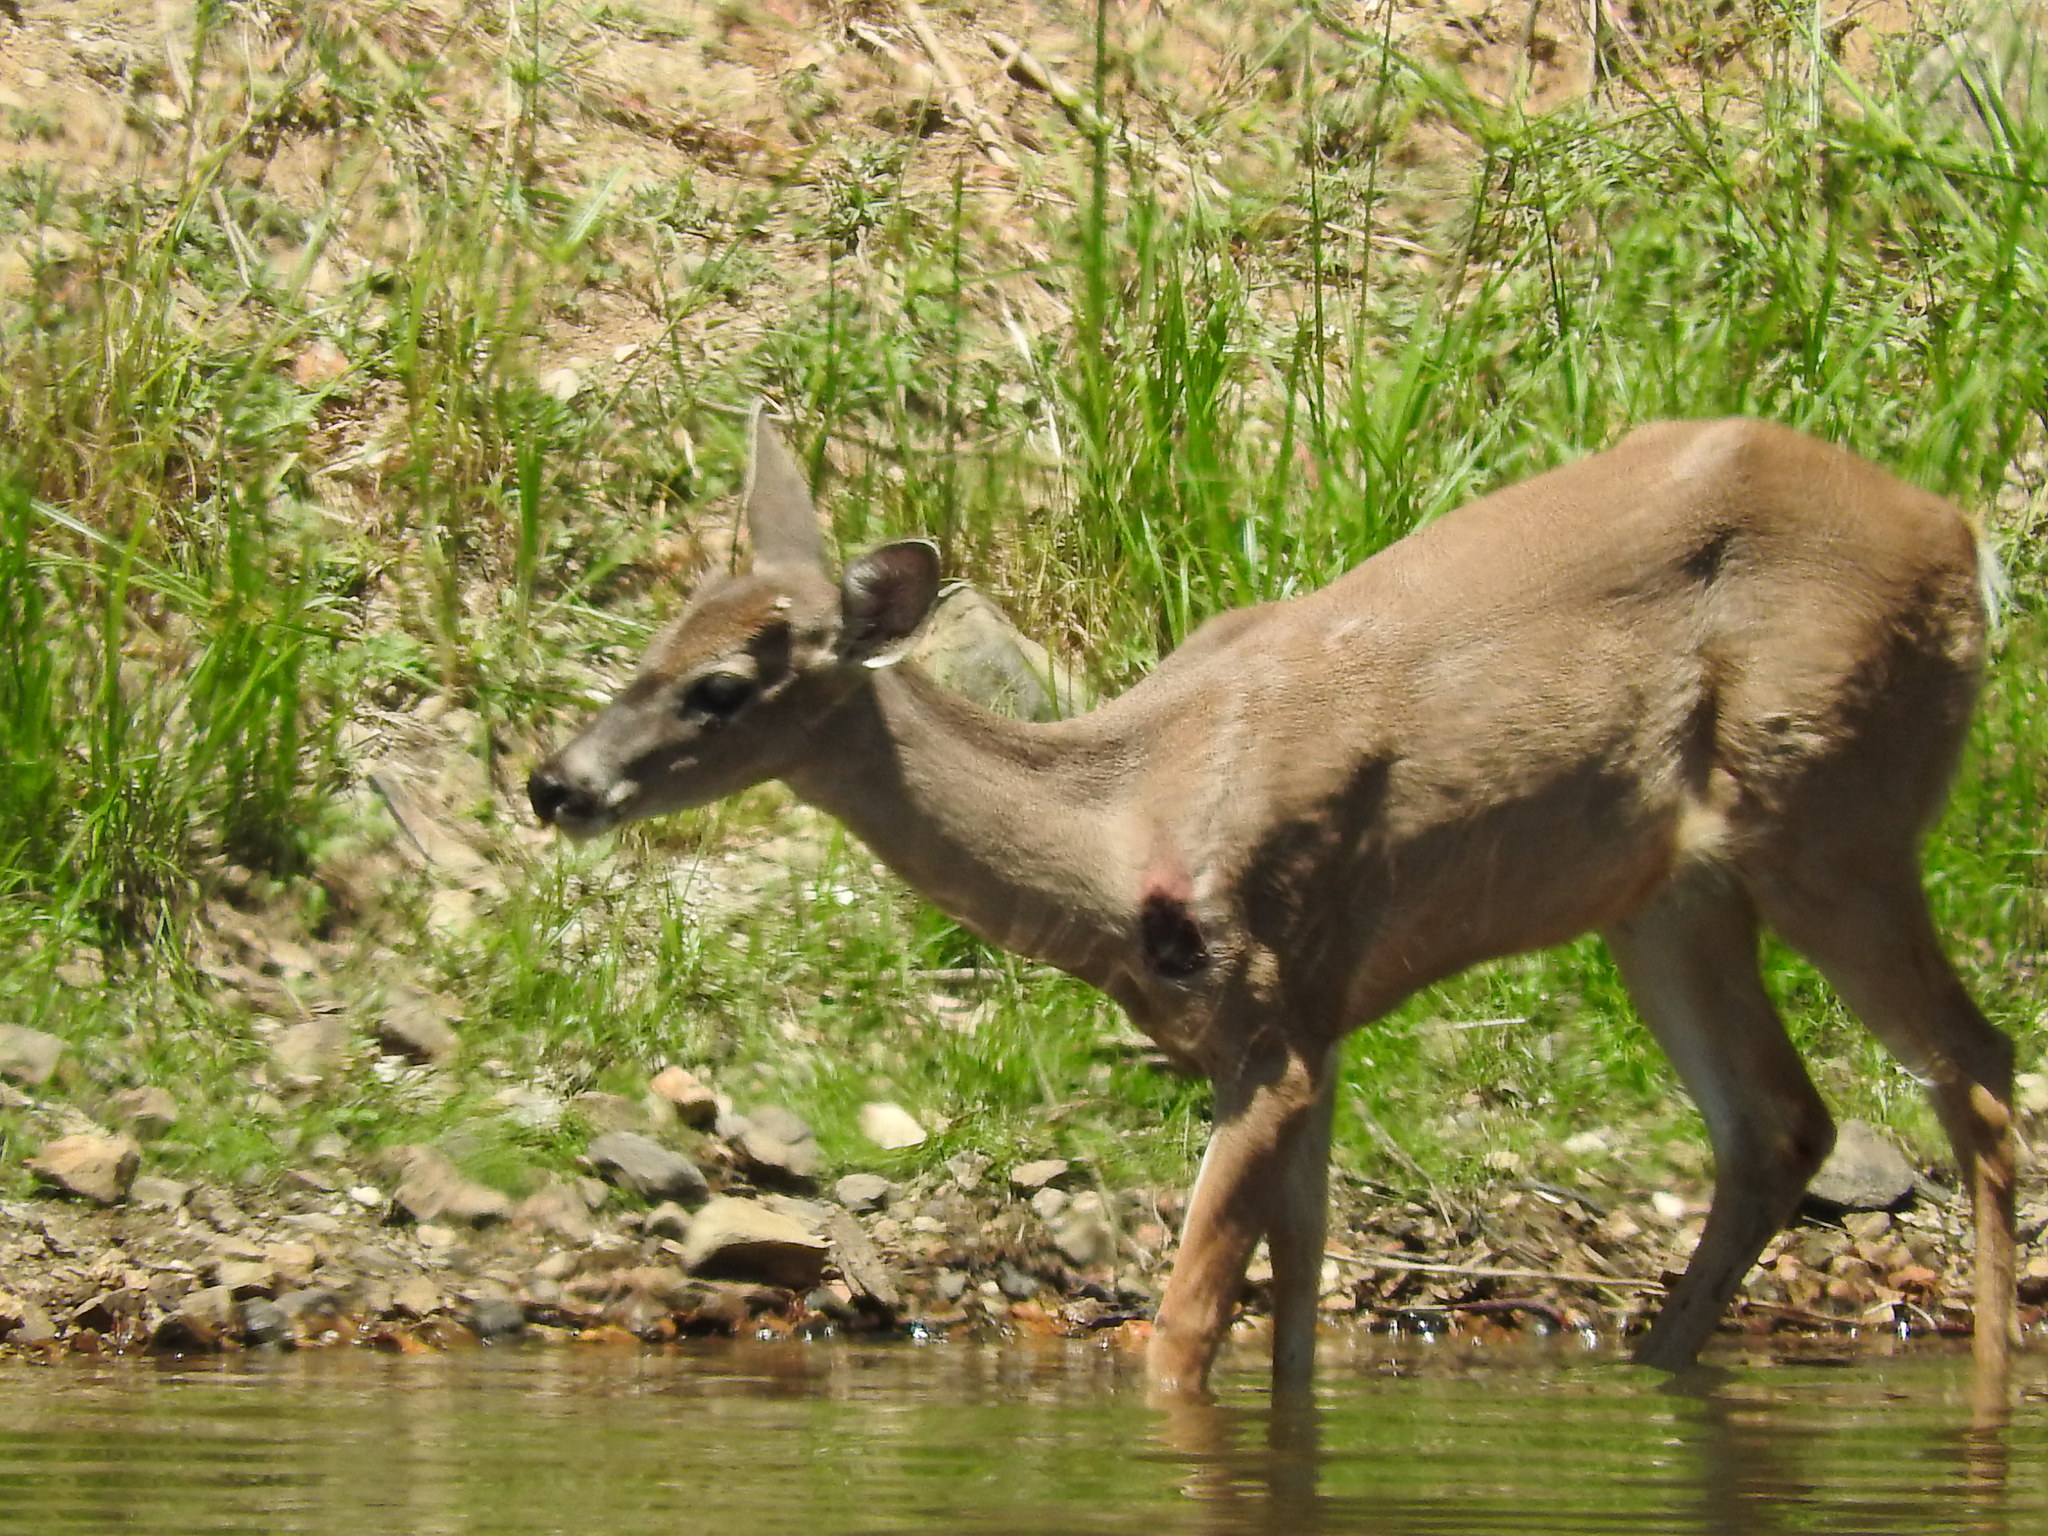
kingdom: Animalia
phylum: Chordata
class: Mammalia
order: Artiodactyla
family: Cervidae
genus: Odocoileus
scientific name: Odocoileus virginianus
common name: White-tailed deer
